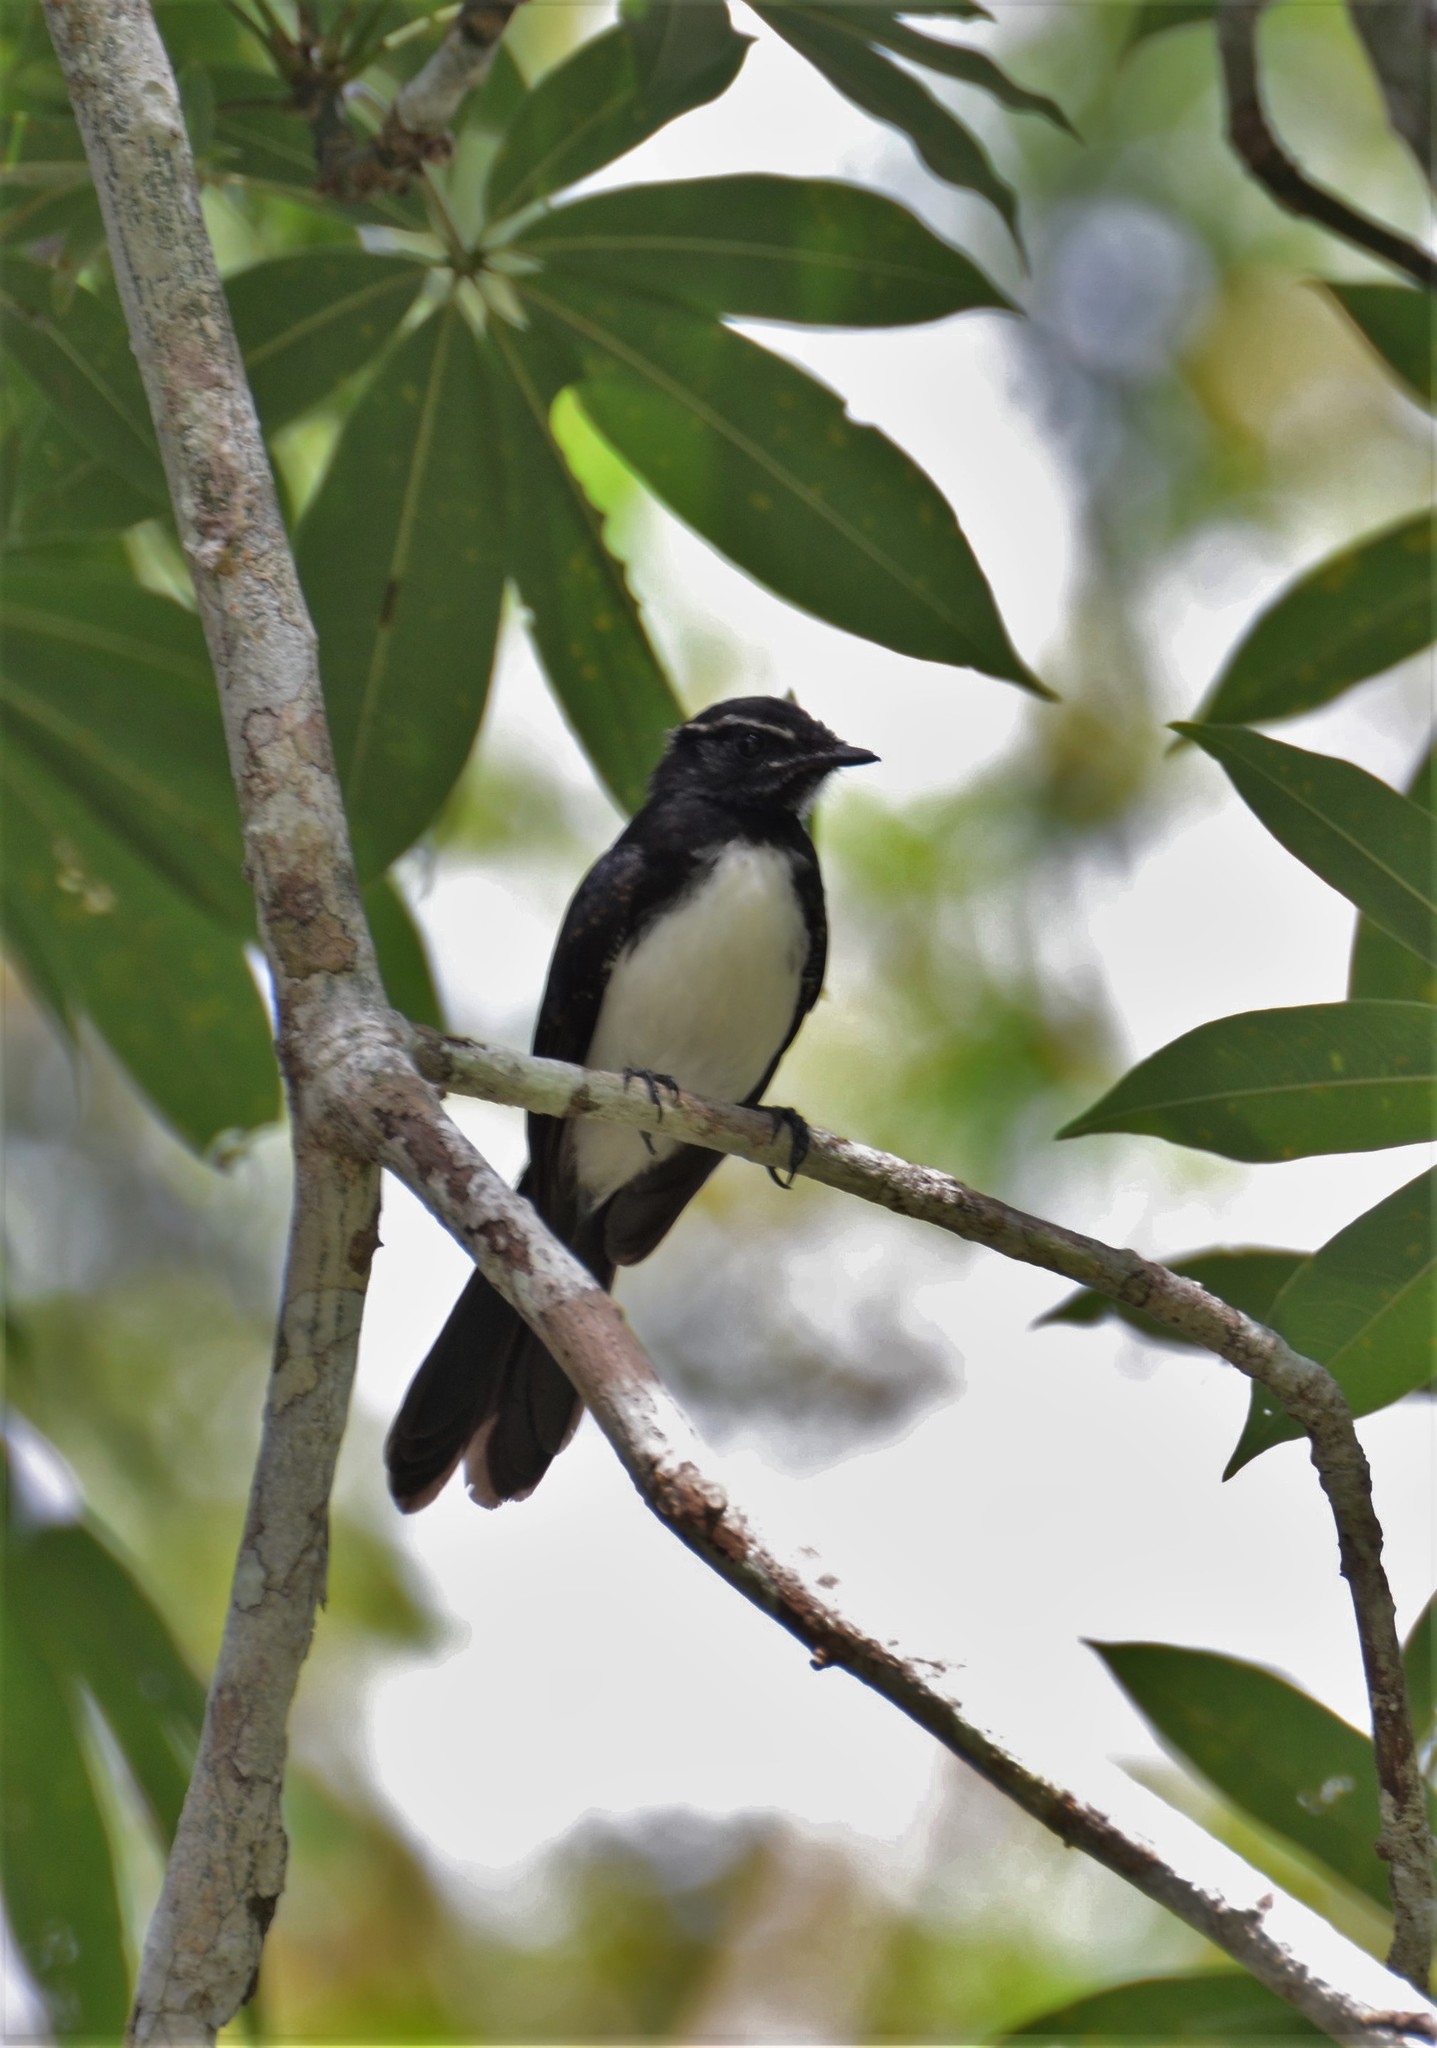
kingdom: Animalia
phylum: Chordata
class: Aves
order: Passeriformes
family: Rhipiduridae
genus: Rhipidura
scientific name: Rhipidura leucophrys
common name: Willie wagtail
